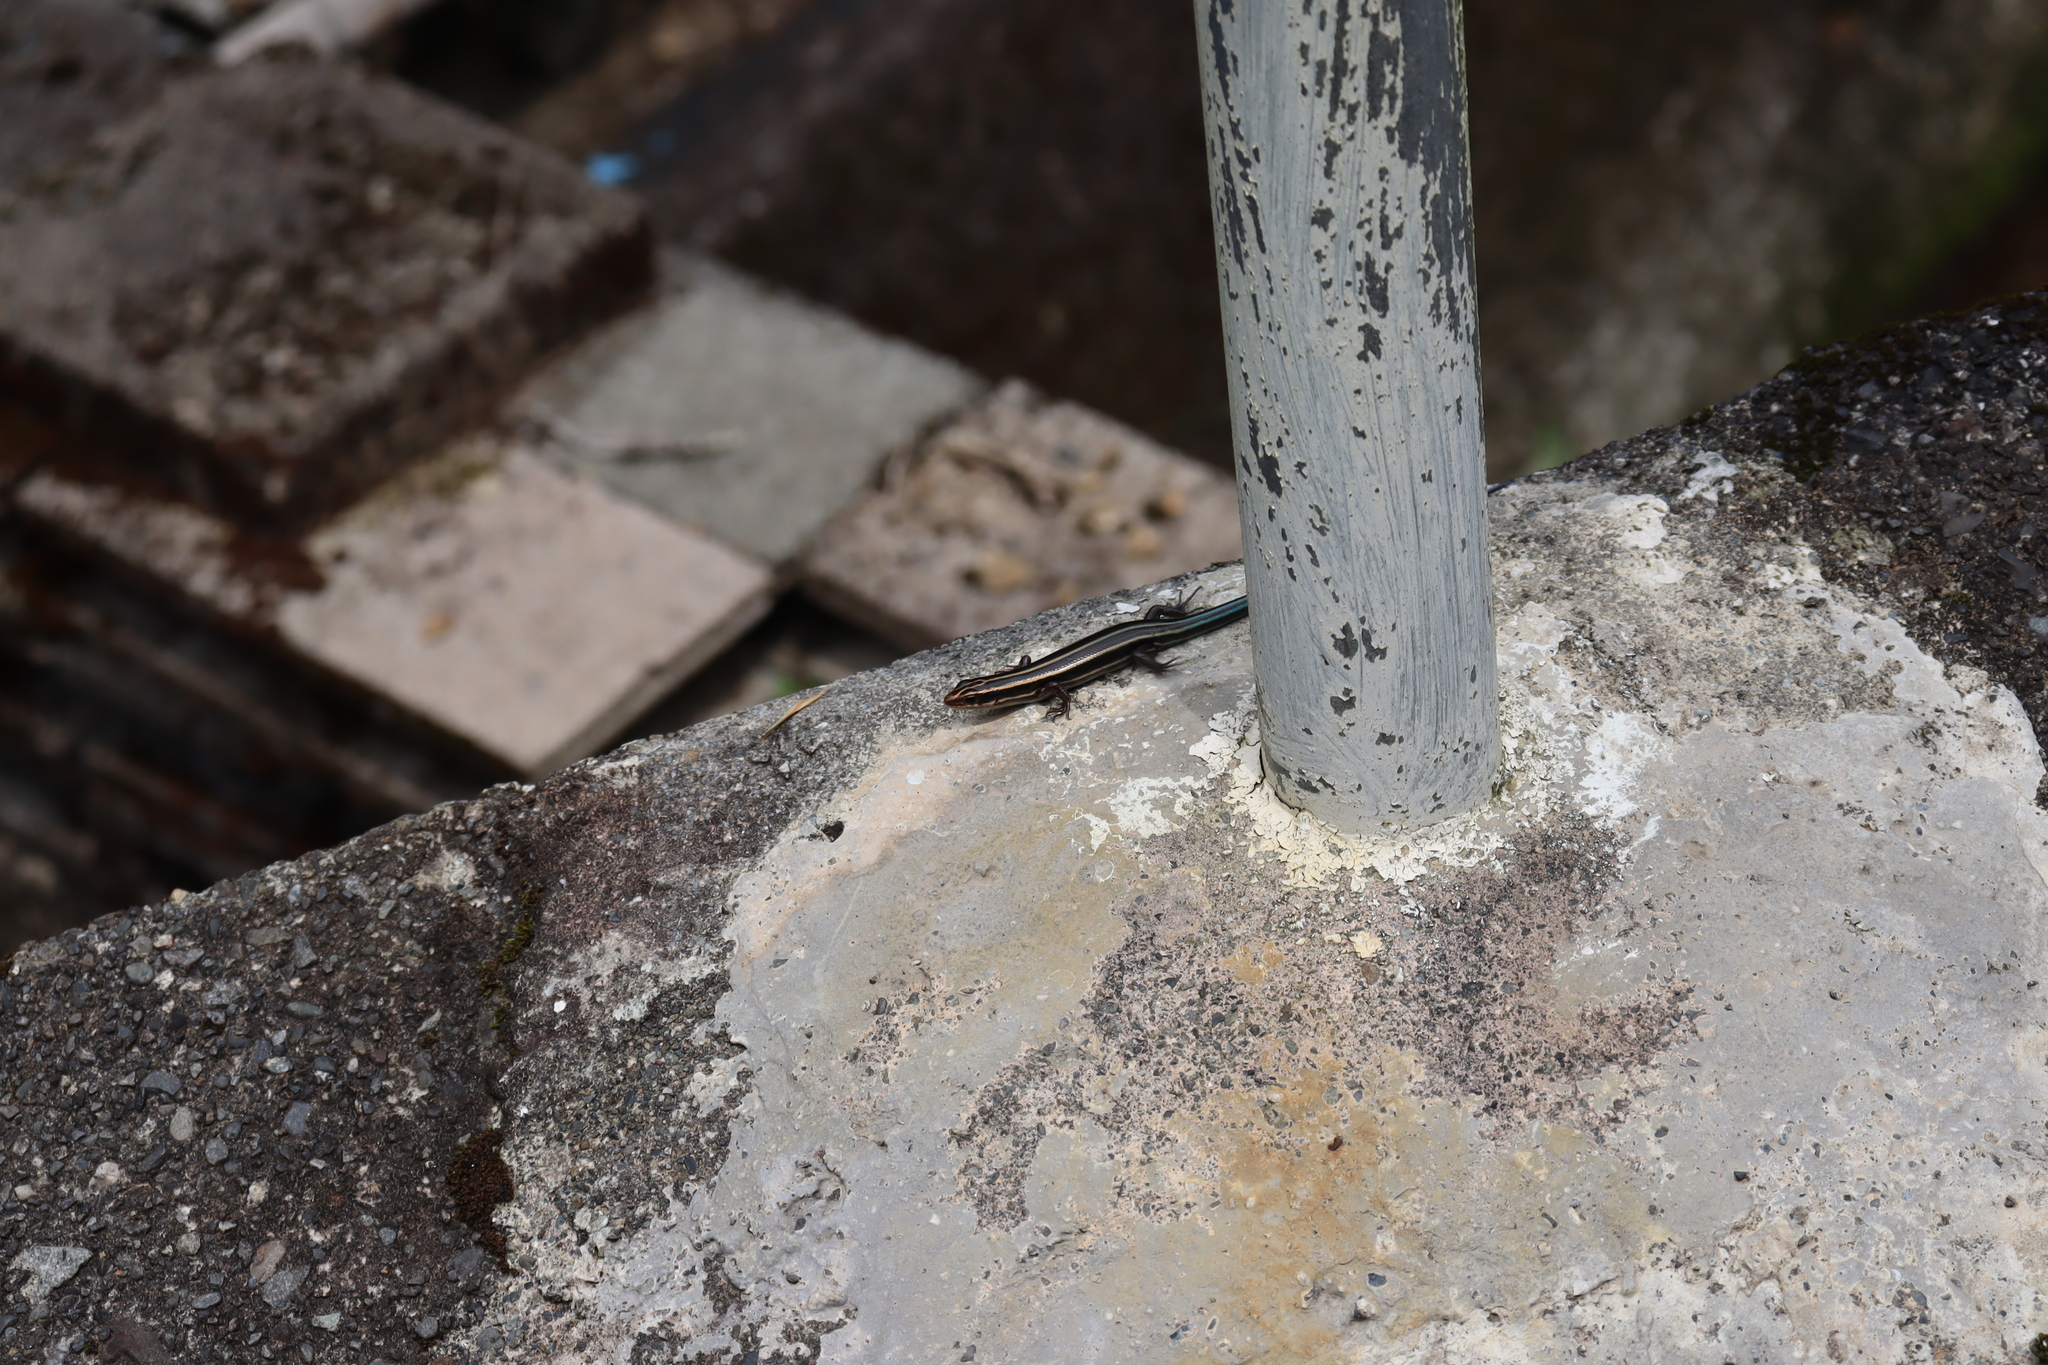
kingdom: Animalia
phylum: Chordata
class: Squamata
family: Scincidae
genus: Plestiodon
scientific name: Plestiodon finitimus
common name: Far eastern skink
